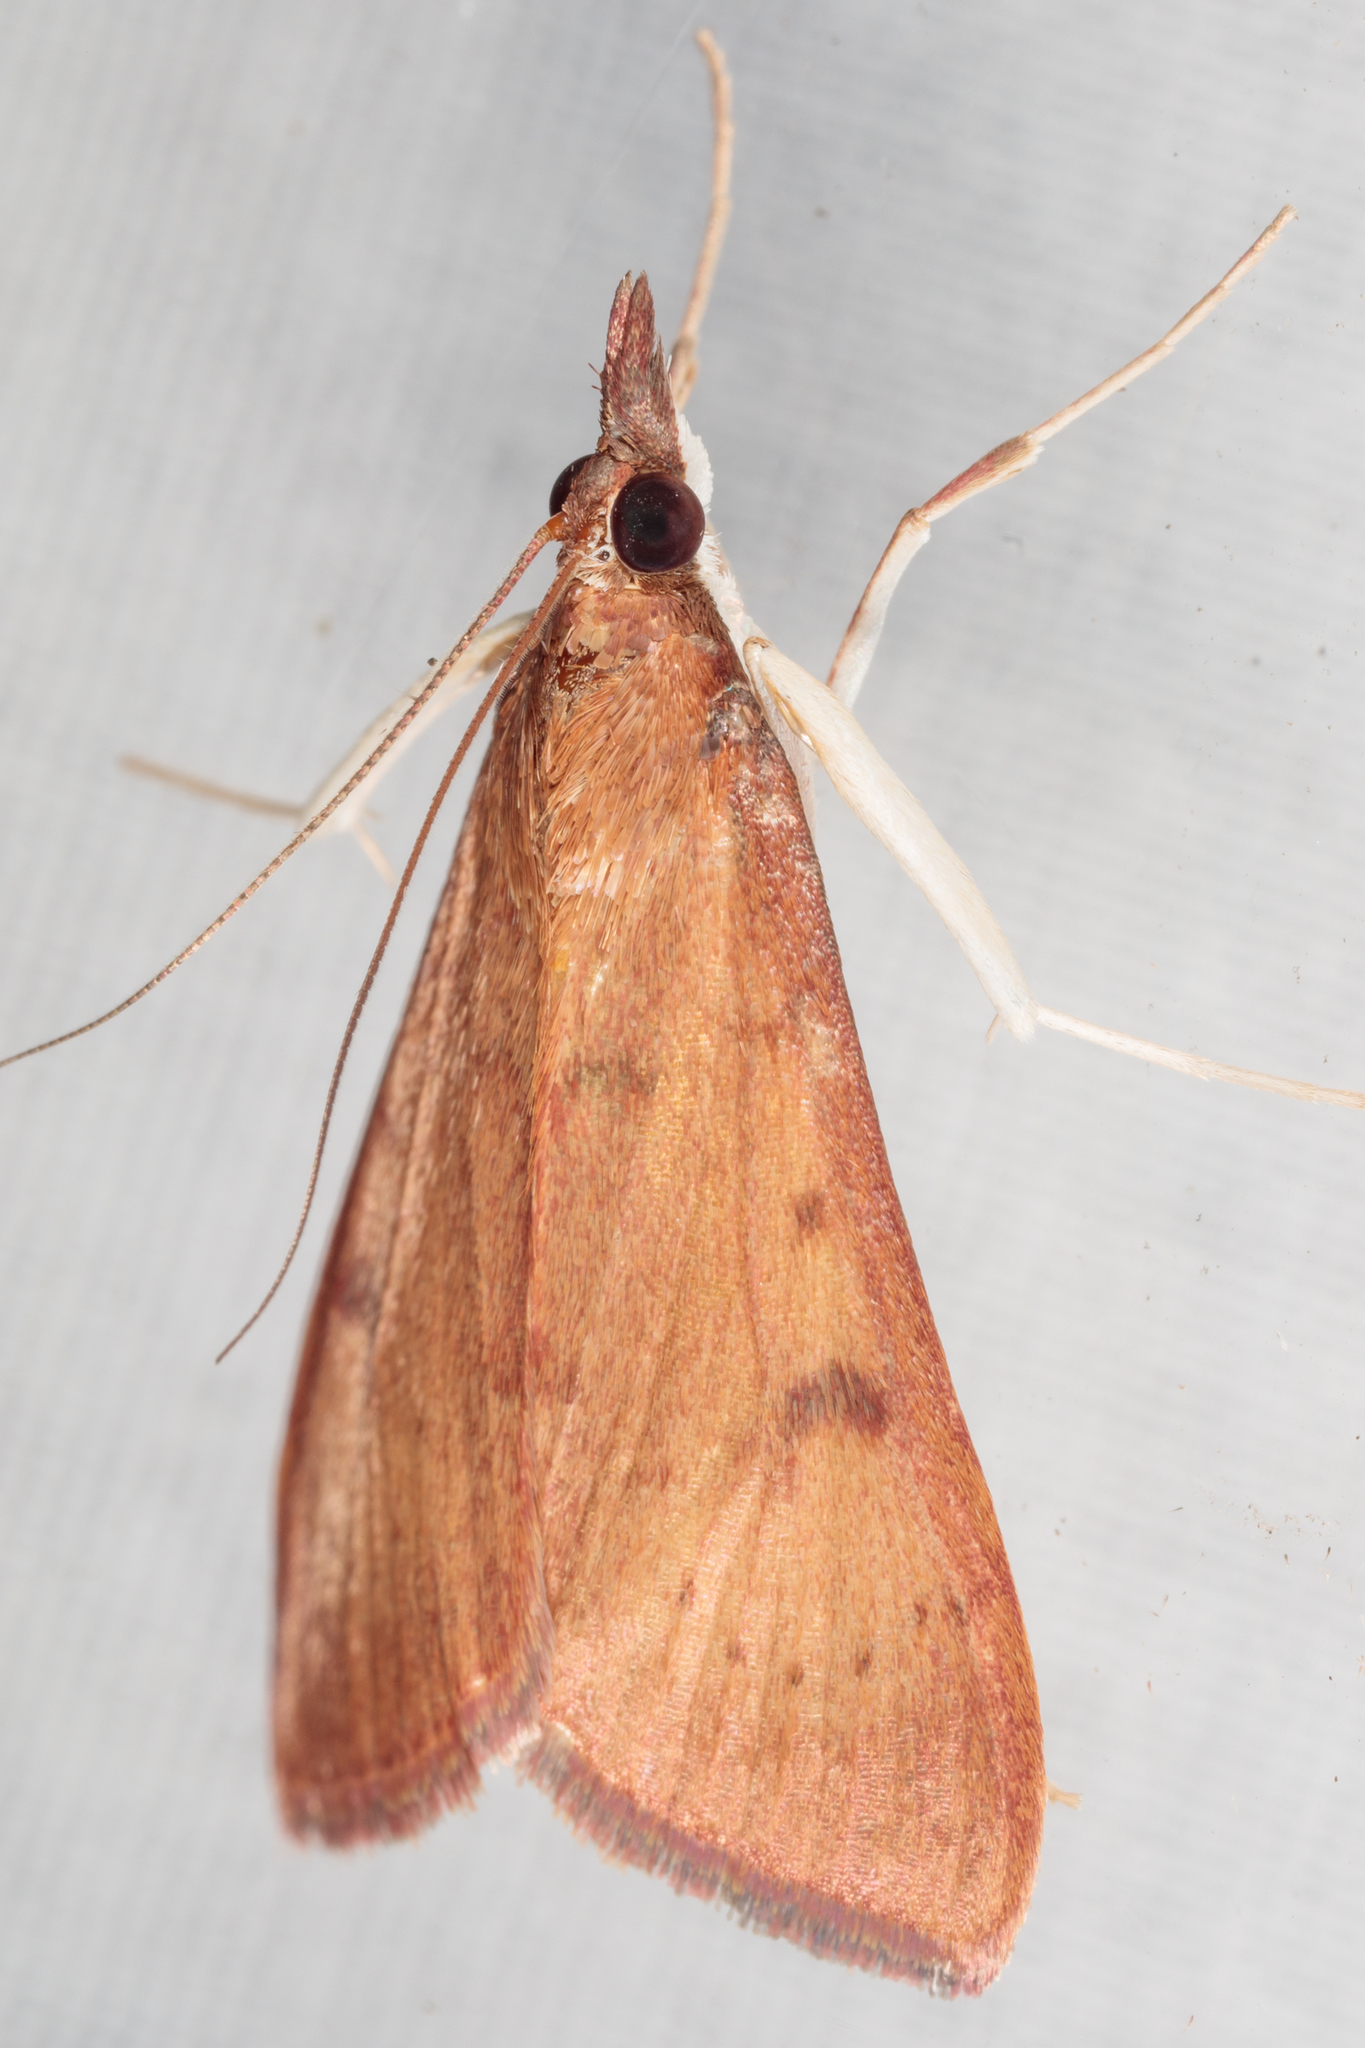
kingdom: Animalia
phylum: Arthropoda
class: Insecta
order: Lepidoptera
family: Crambidae
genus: Uresiphita
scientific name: Uresiphita reversalis
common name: Genista broom moth
